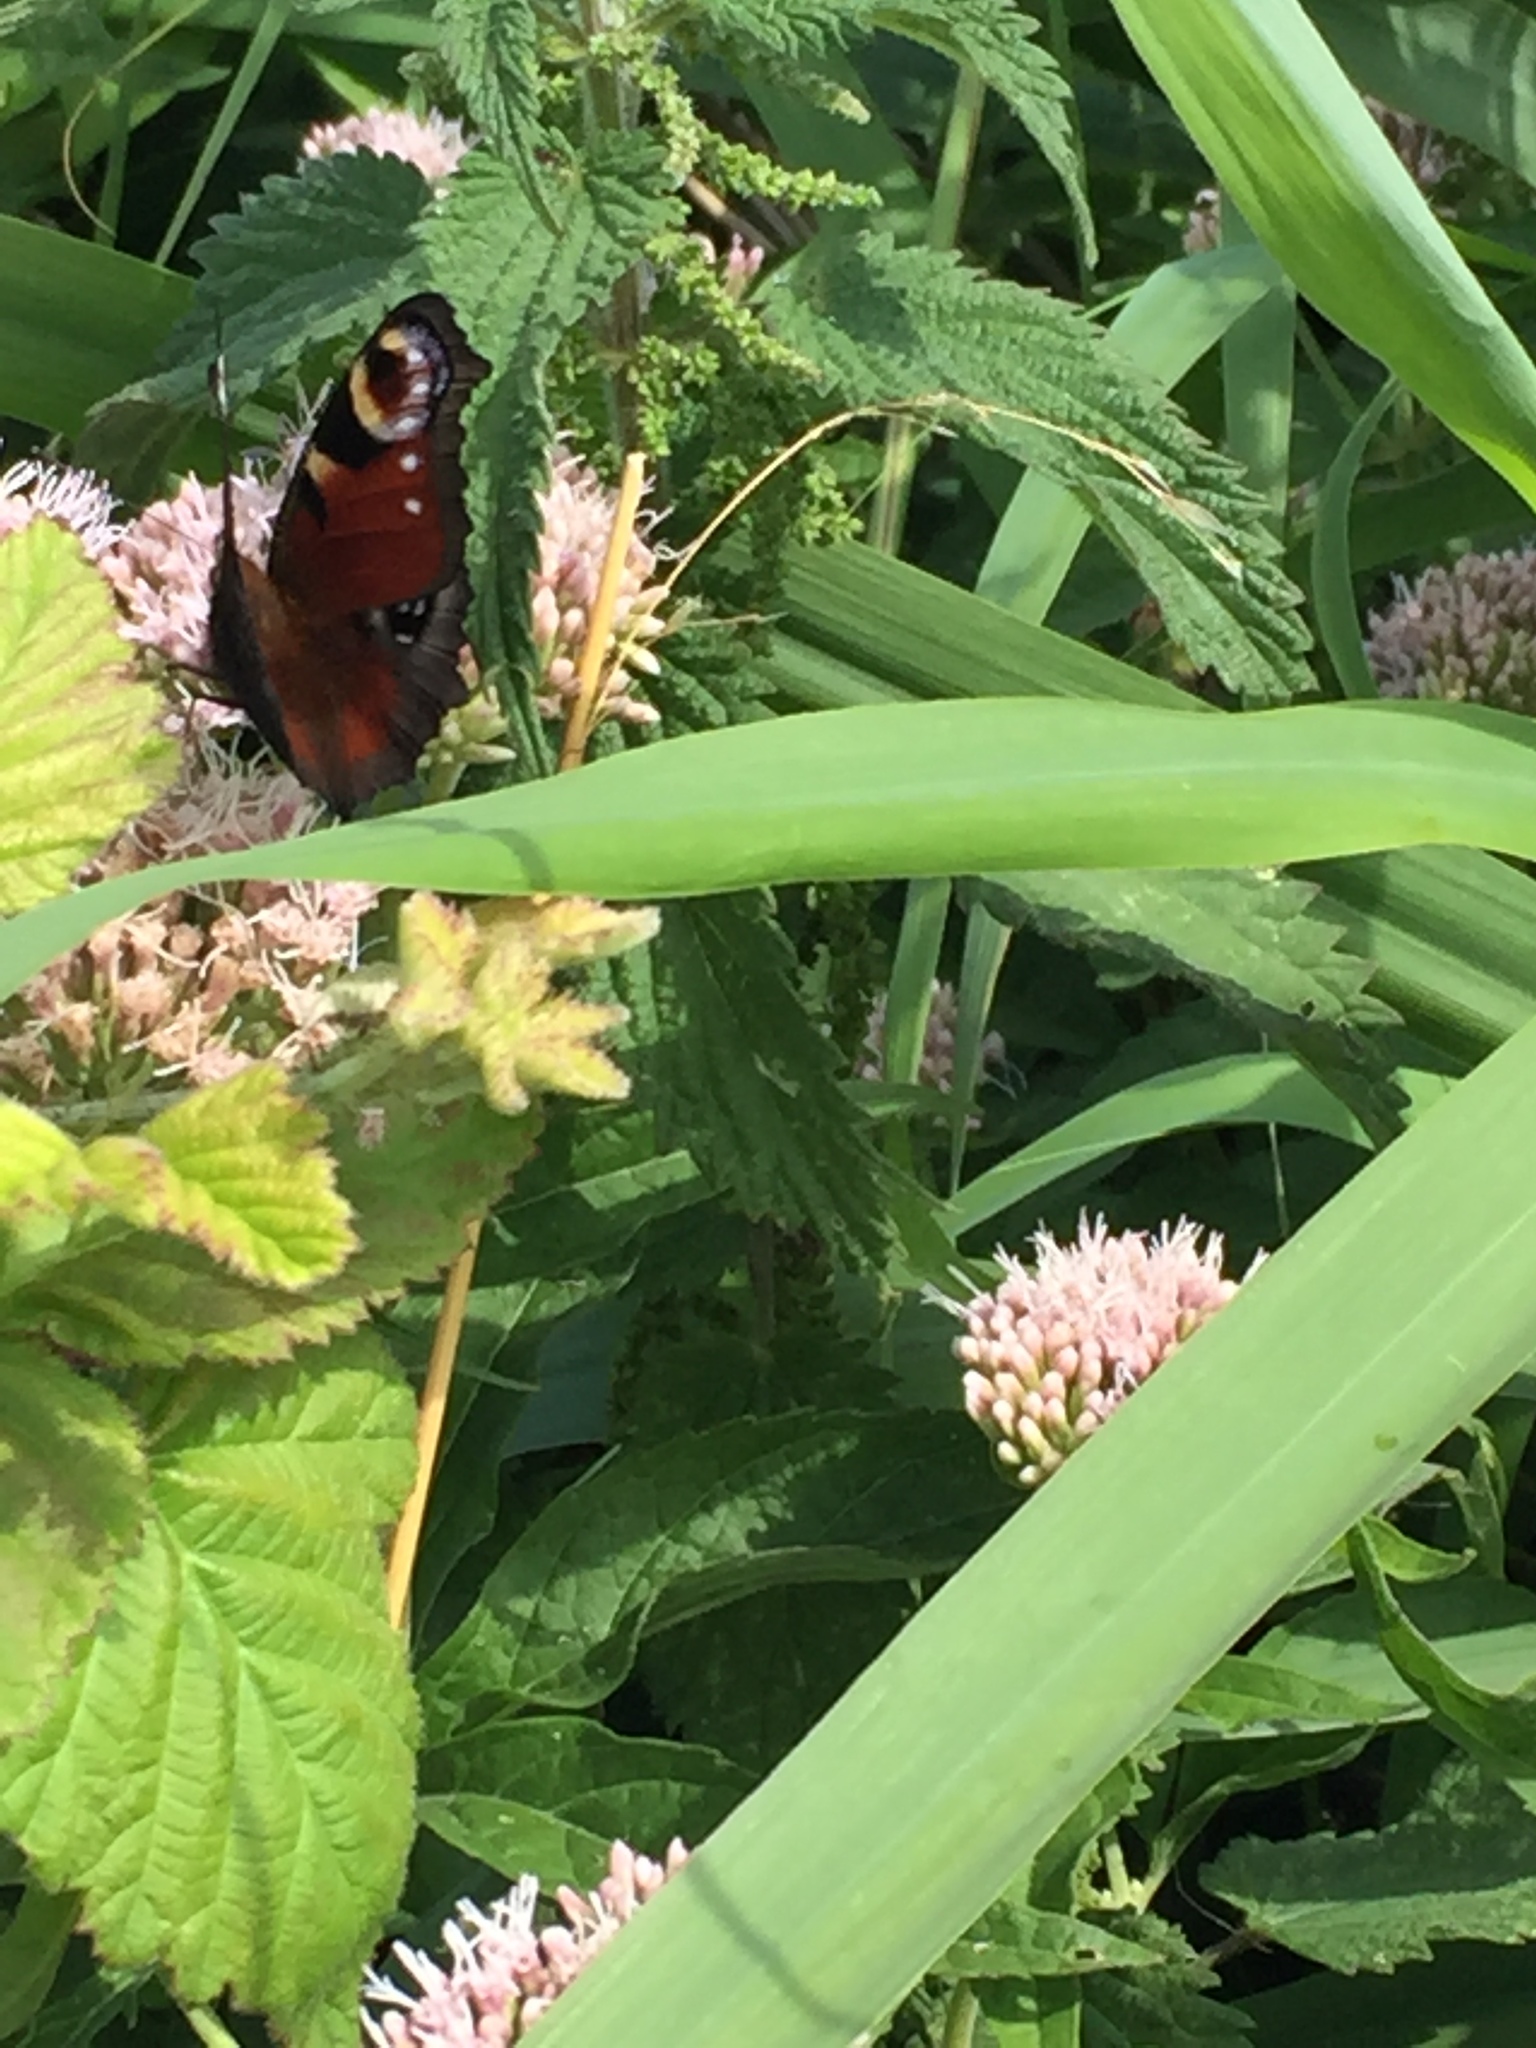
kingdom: Animalia
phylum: Arthropoda
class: Insecta
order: Lepidoptera
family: Nymphalidae
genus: Aglais
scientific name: Aglais io
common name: Peacock
